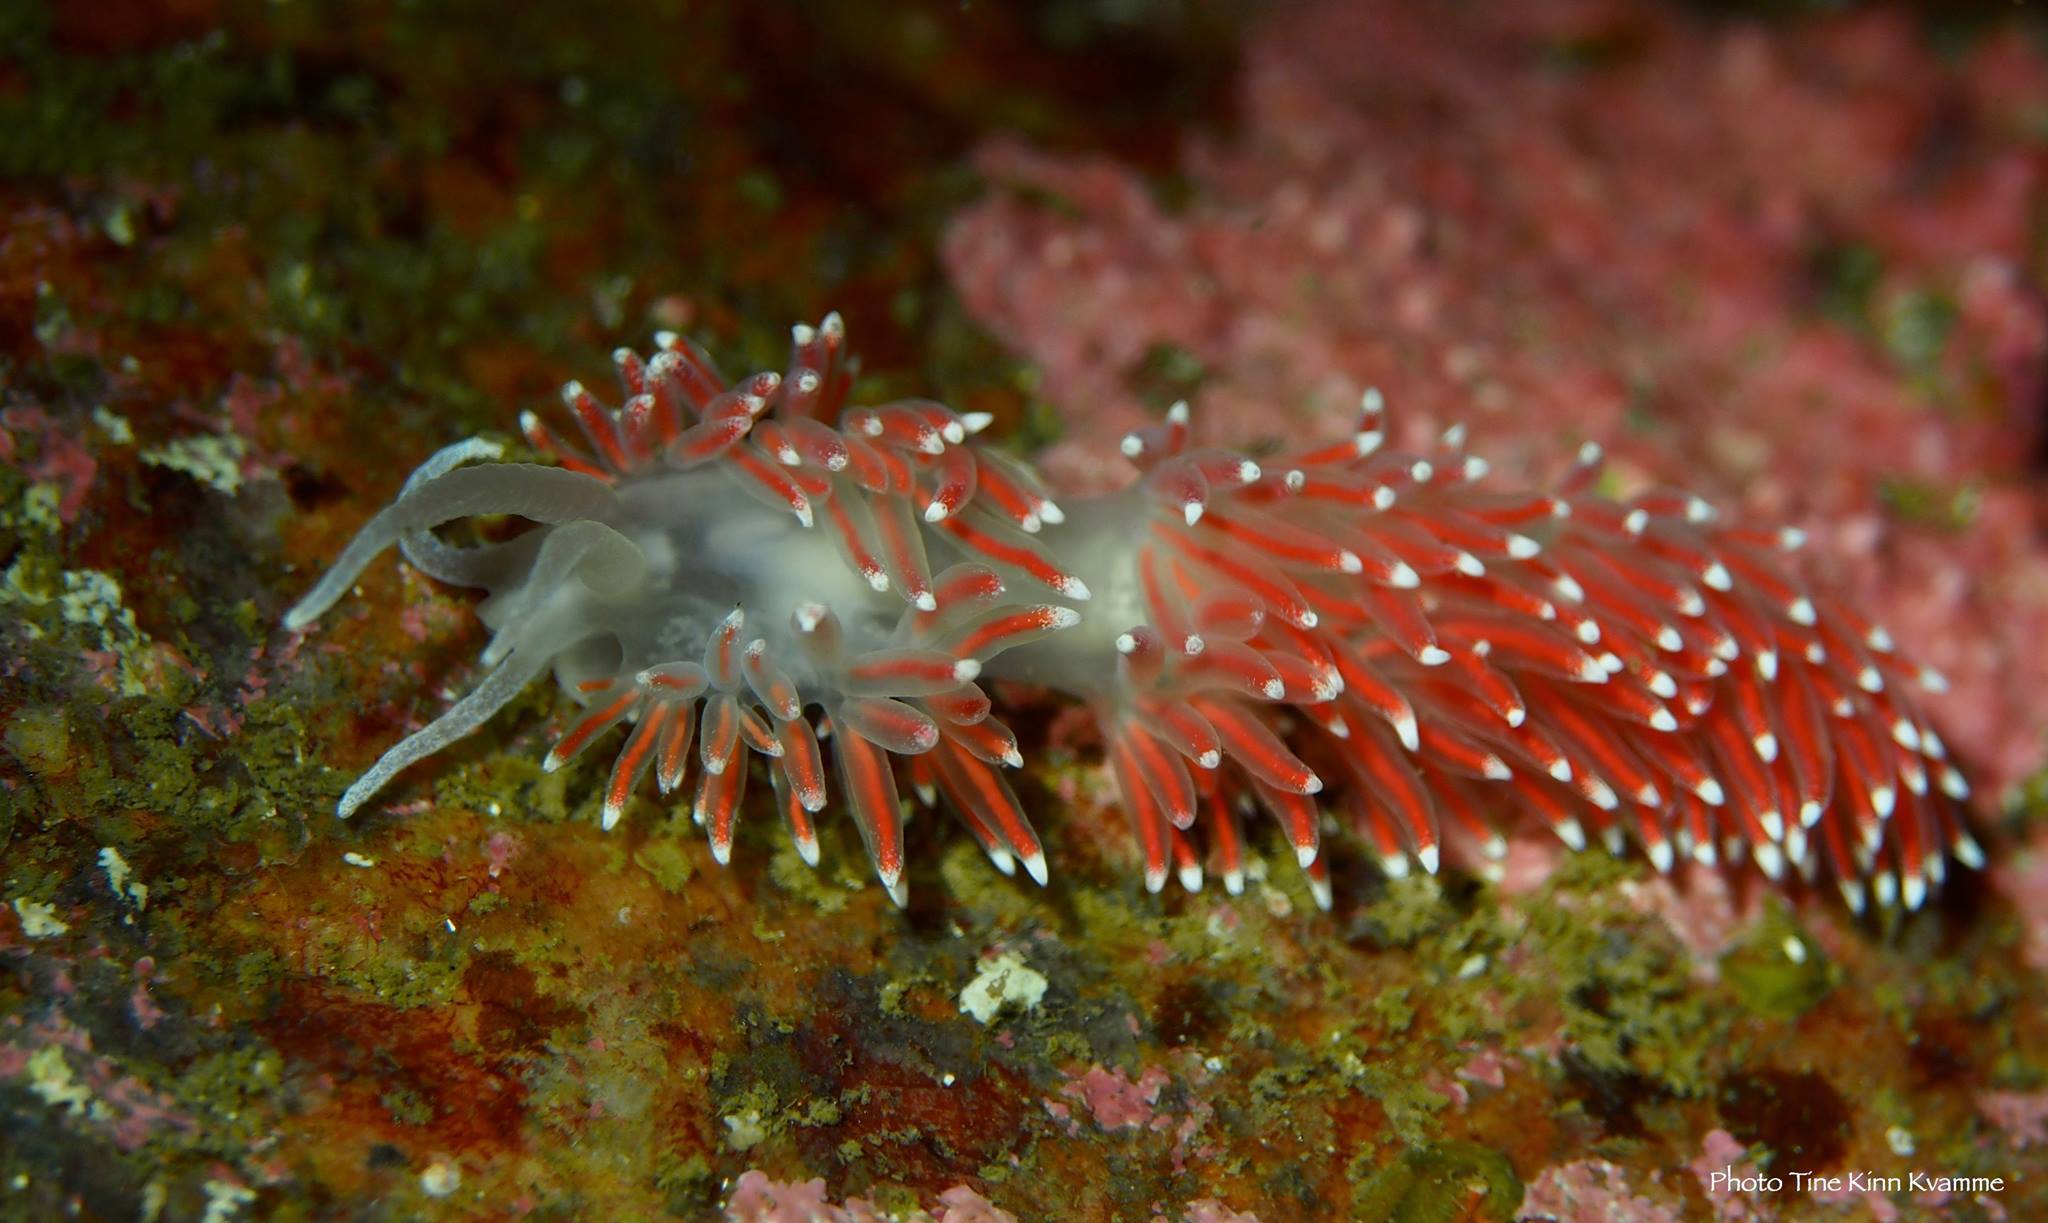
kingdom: Animalia
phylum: Mollusca
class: Gastropoda
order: Nudibranchia
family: Flabellinidae
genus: Carronella
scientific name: Carronella pellucida
